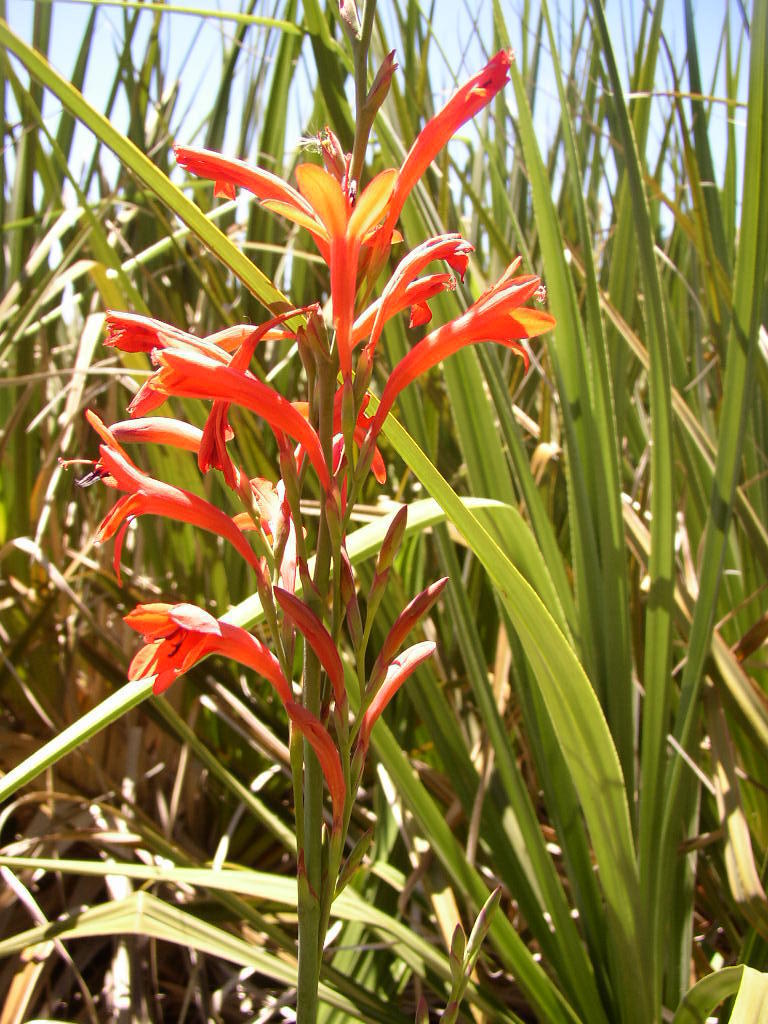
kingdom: Plantae
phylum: Tracheophyta
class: Liliopsida
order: Asparagales
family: Iridaceae
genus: Watsonia
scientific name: Watsonia angusta
